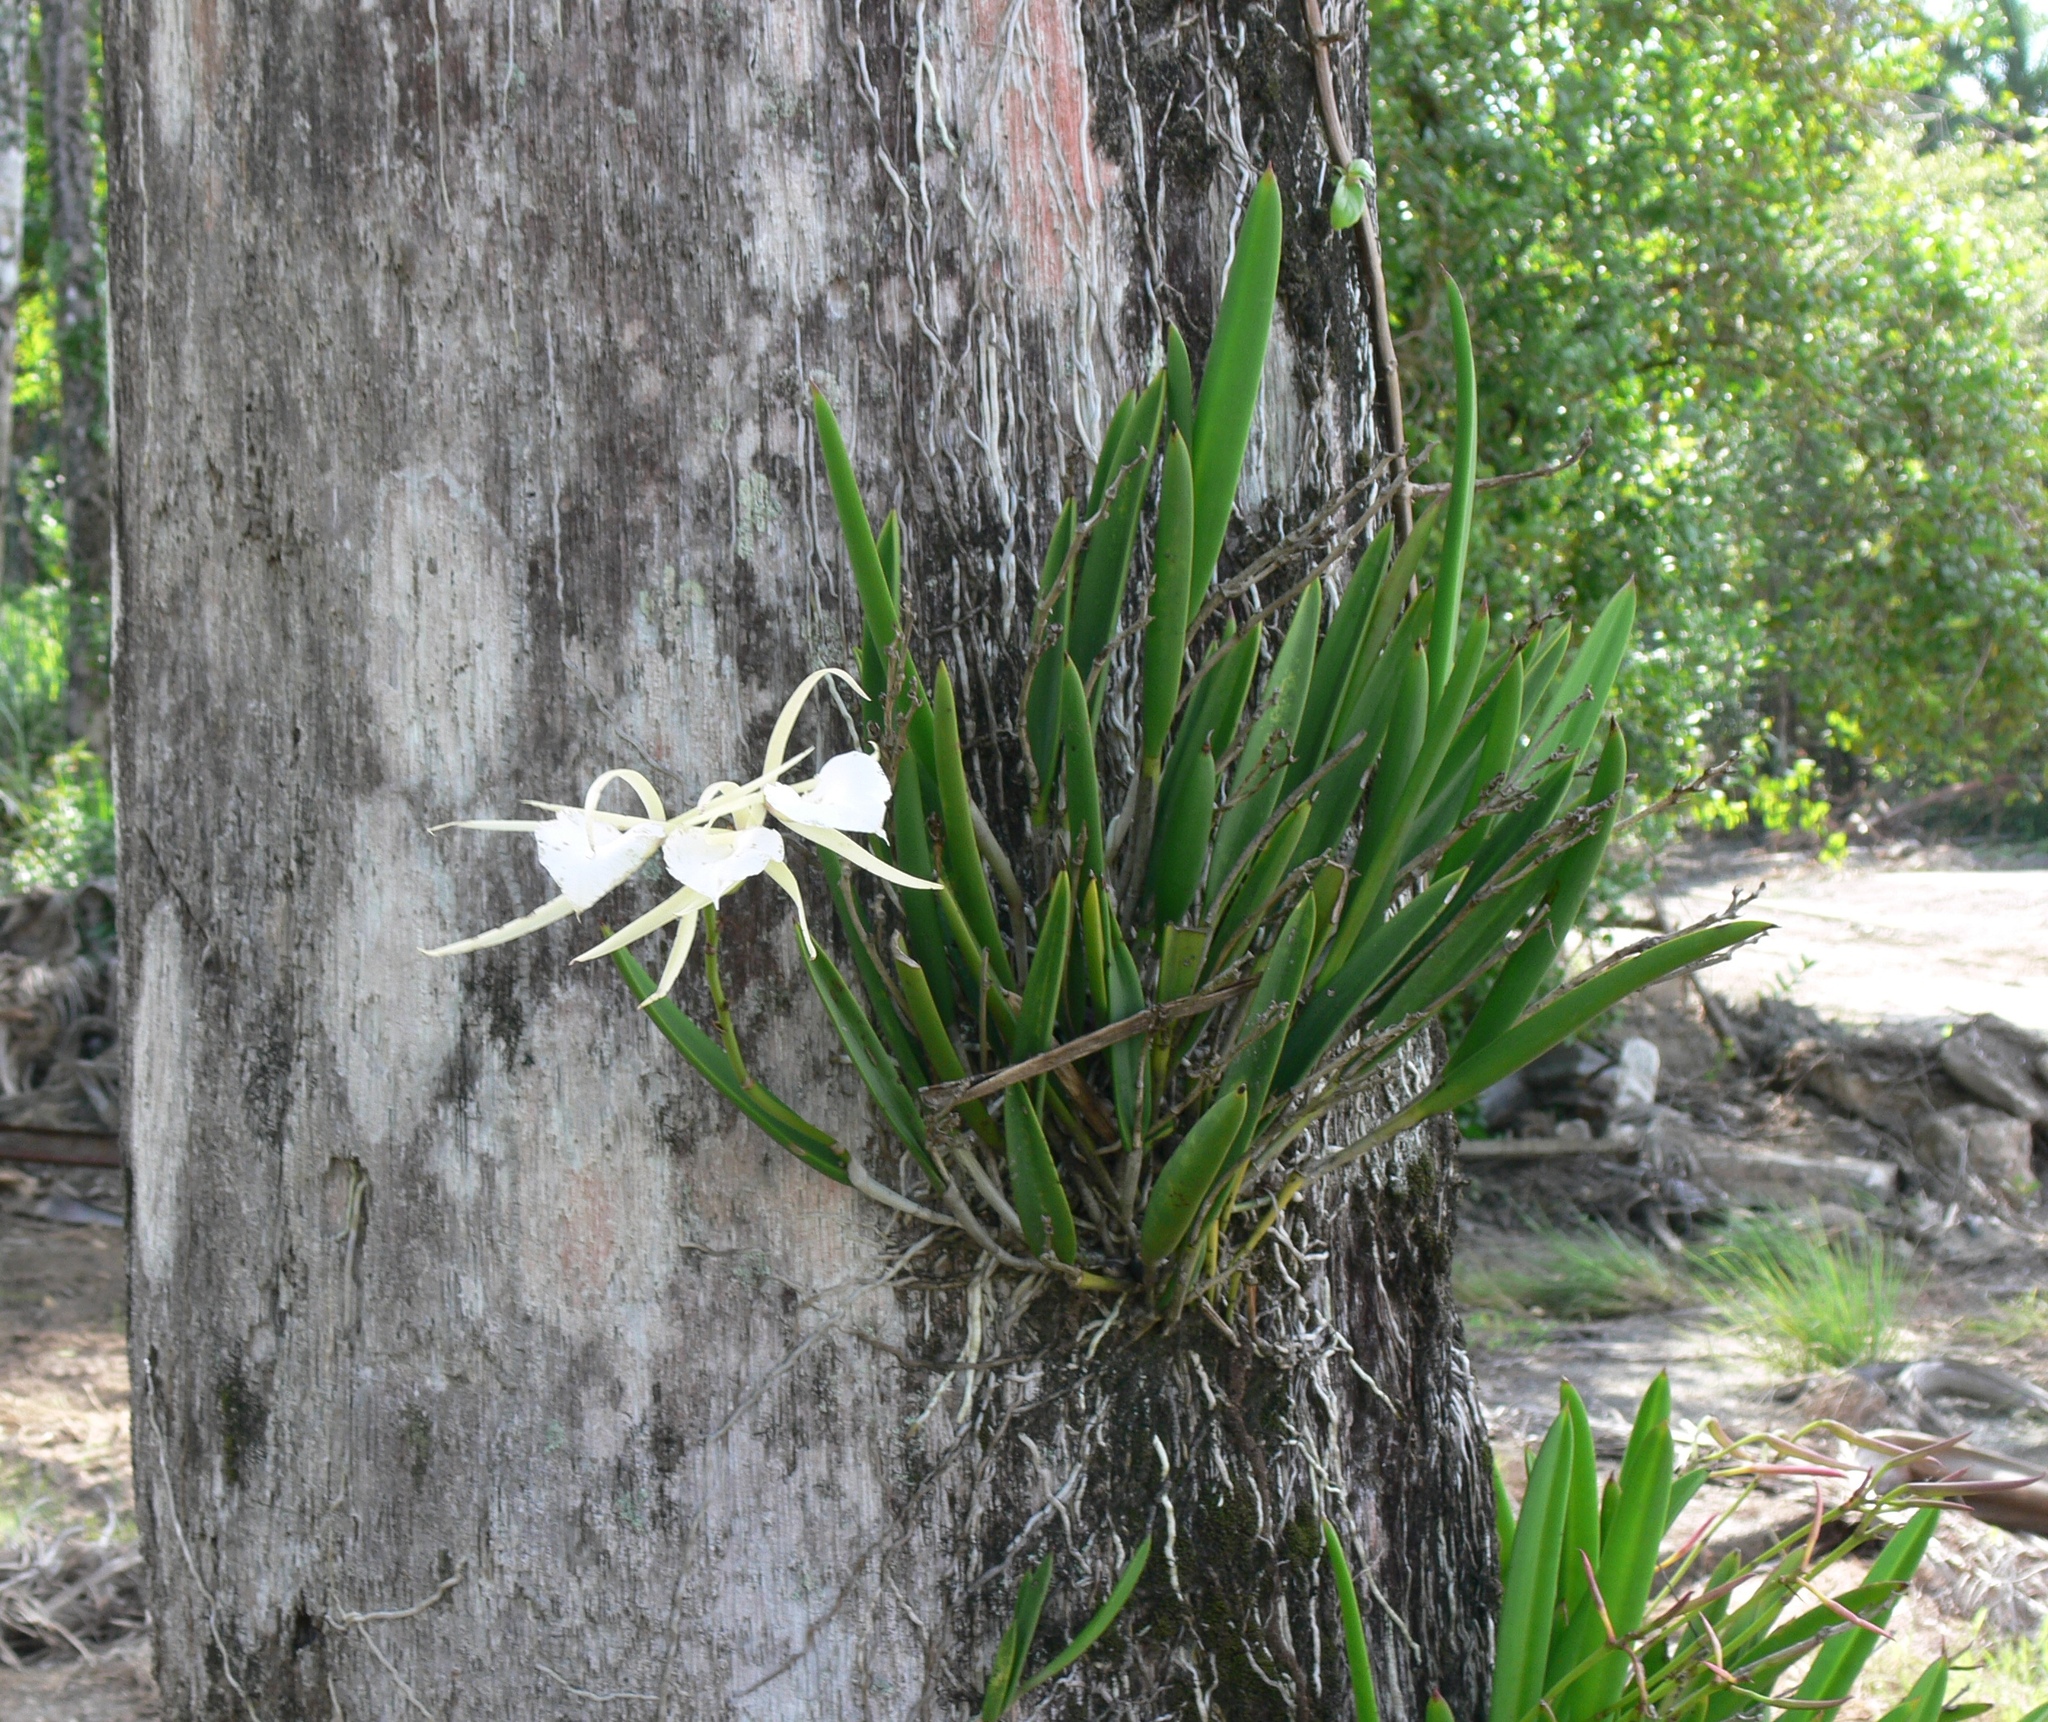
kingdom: Plantae
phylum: Tracheophyta
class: Liliopsida
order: Asparagales
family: Orchidaceae
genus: Brassavola
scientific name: Brassavola nodosa
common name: Lady of the night
